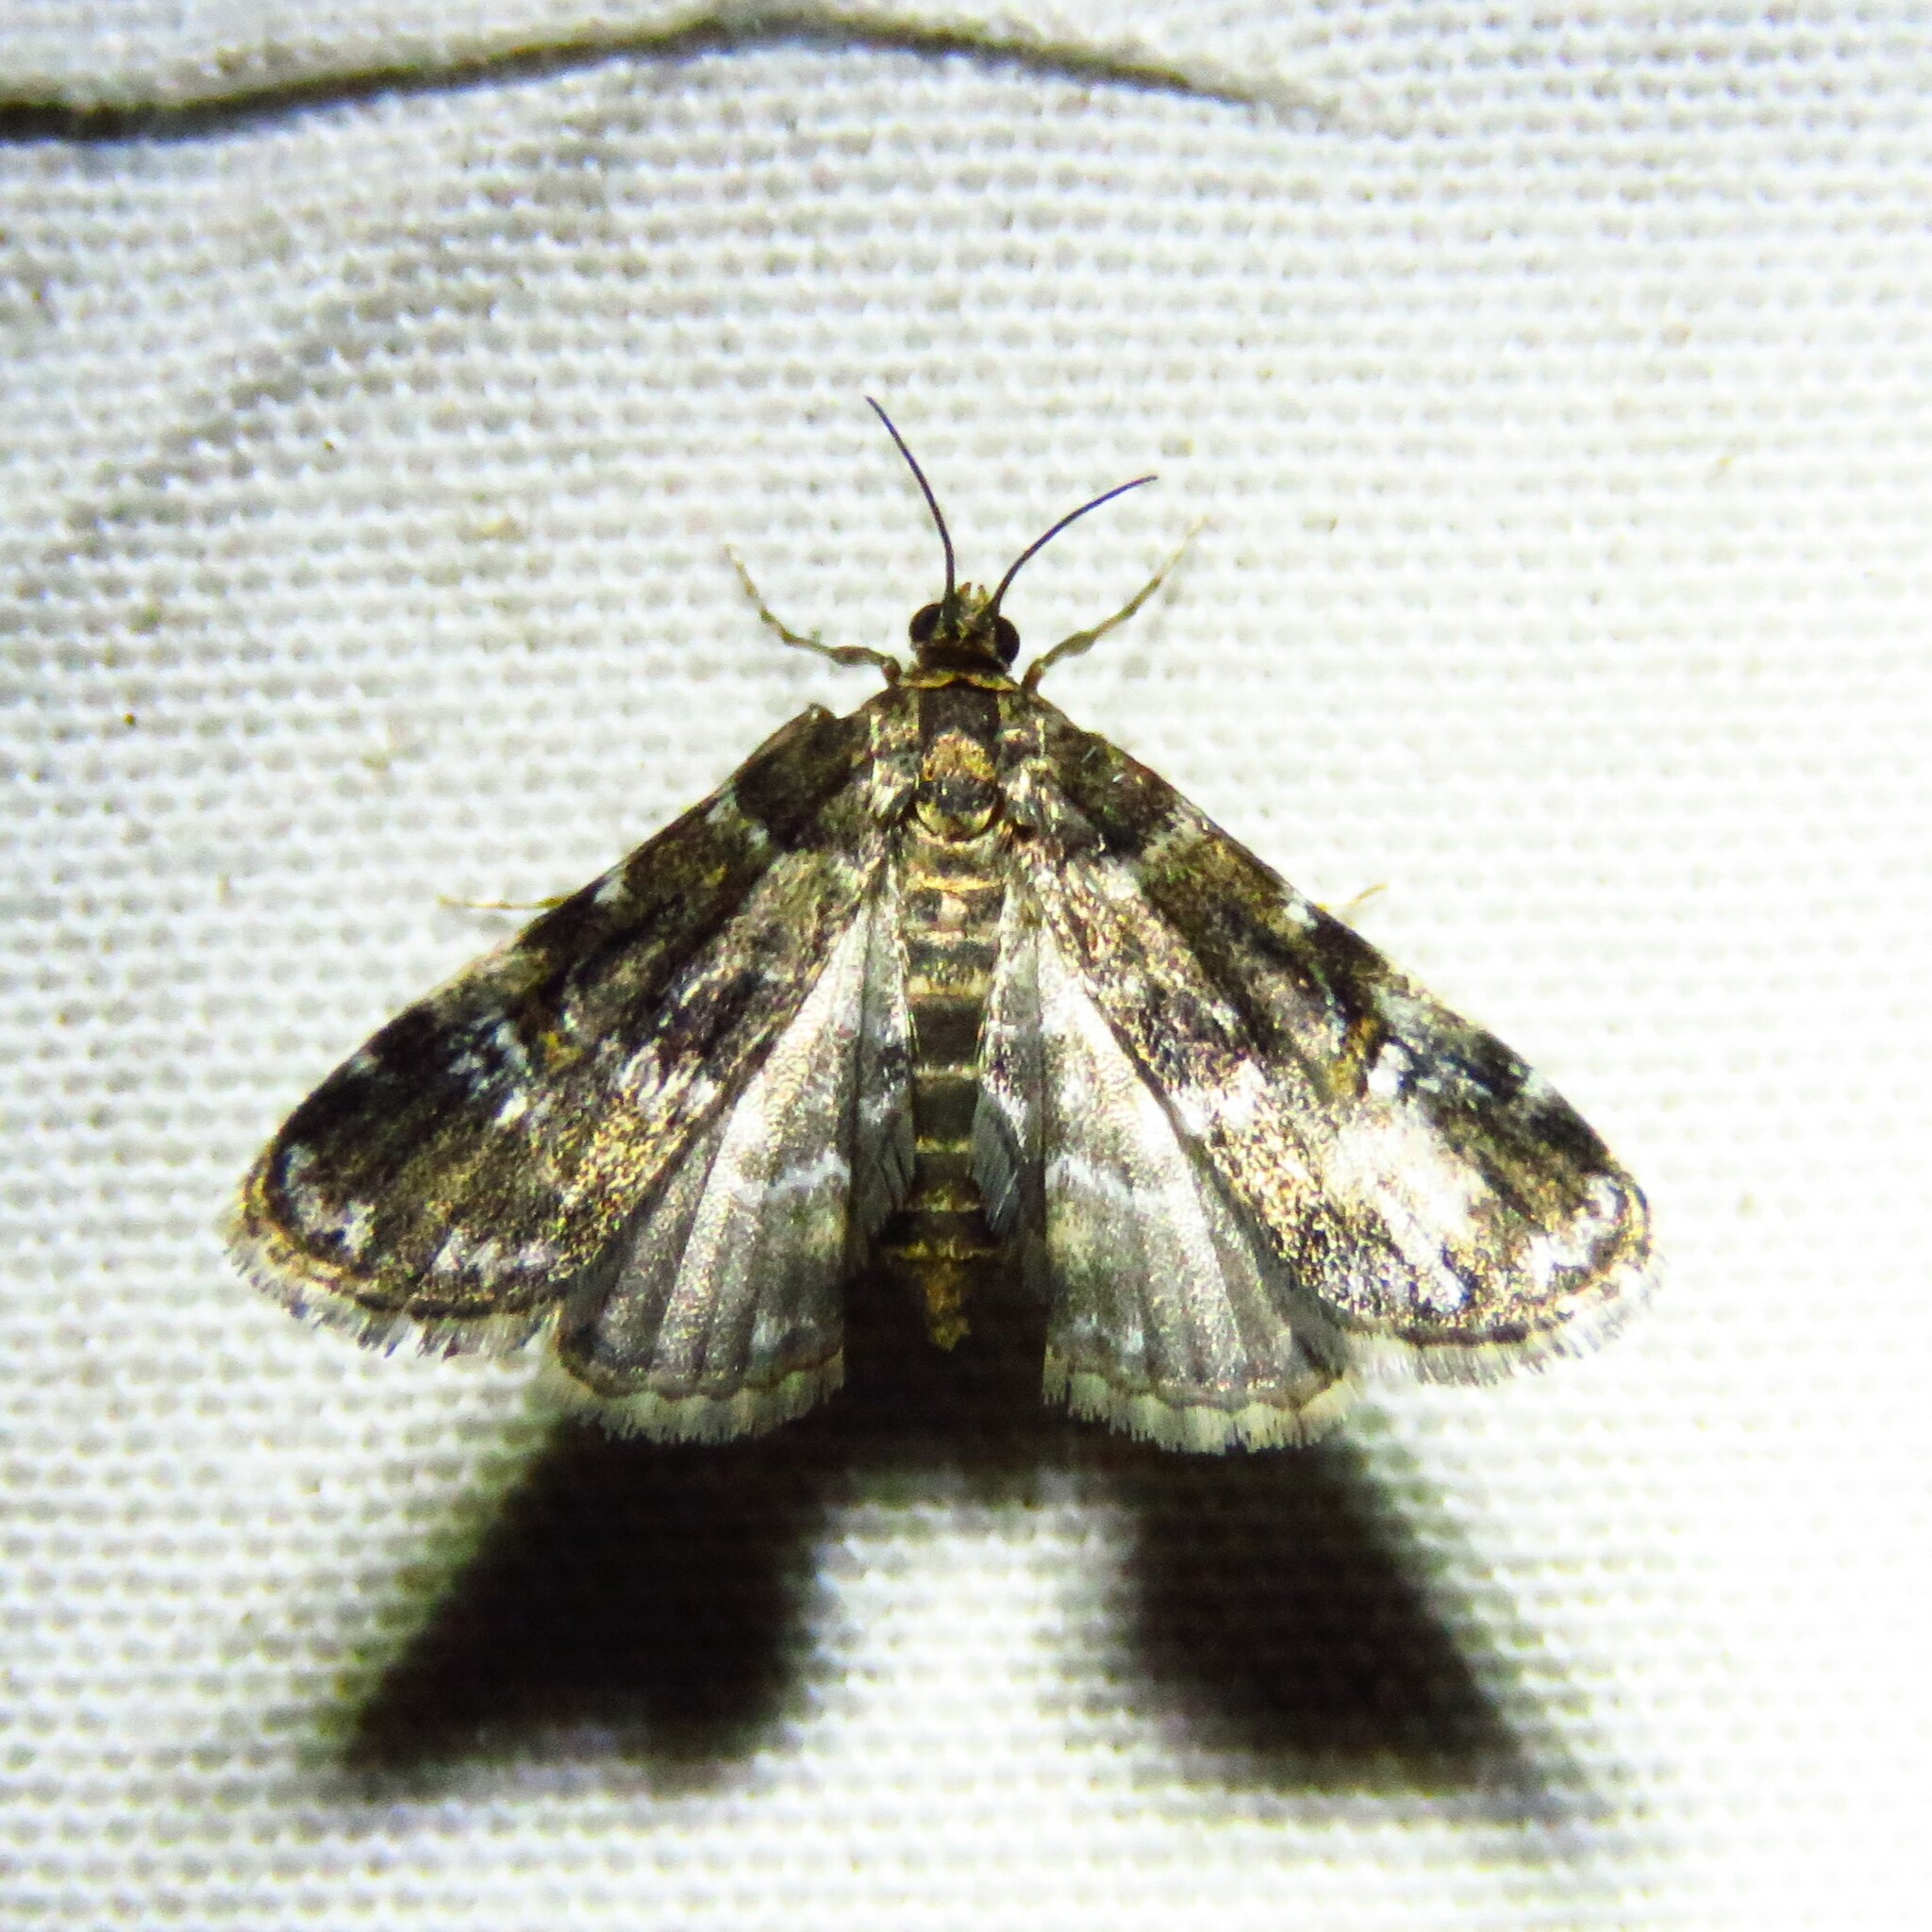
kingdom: Animalia
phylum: Arthropoda
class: Insecta
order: Lepidoptera
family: Crambidae
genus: Elophila
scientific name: Elophila obliteralis
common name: Waterlily leafcutter moth
